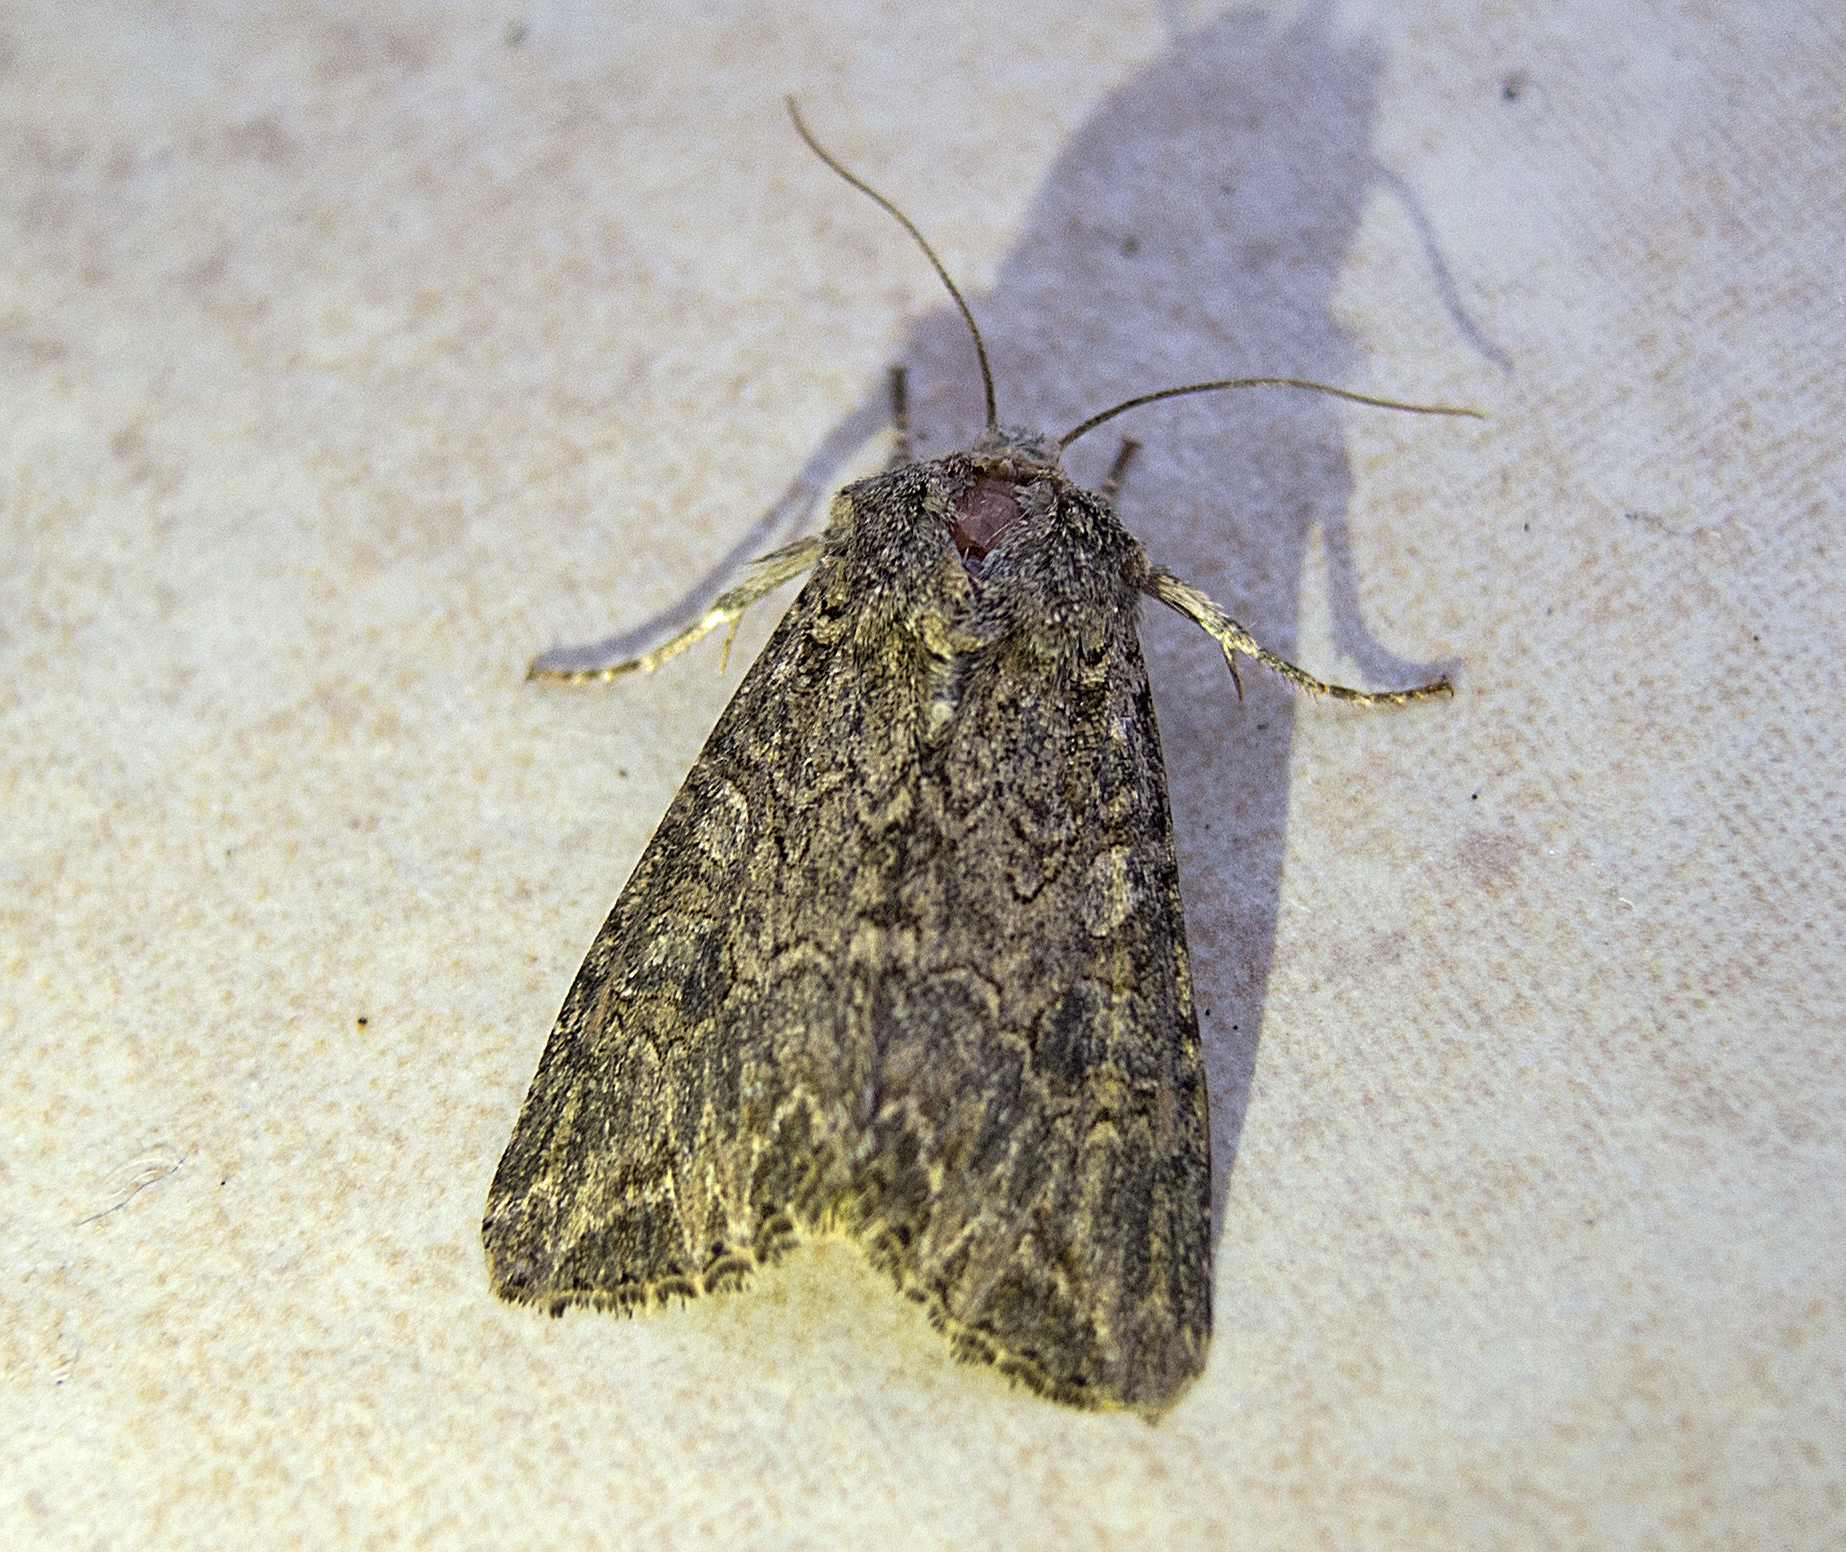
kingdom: Animalia
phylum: Arthropoda
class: Insecta
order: Lepidoptera
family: Noctuidae
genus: Anarta
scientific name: Anarta trifolii
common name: Clover cutworm moth
